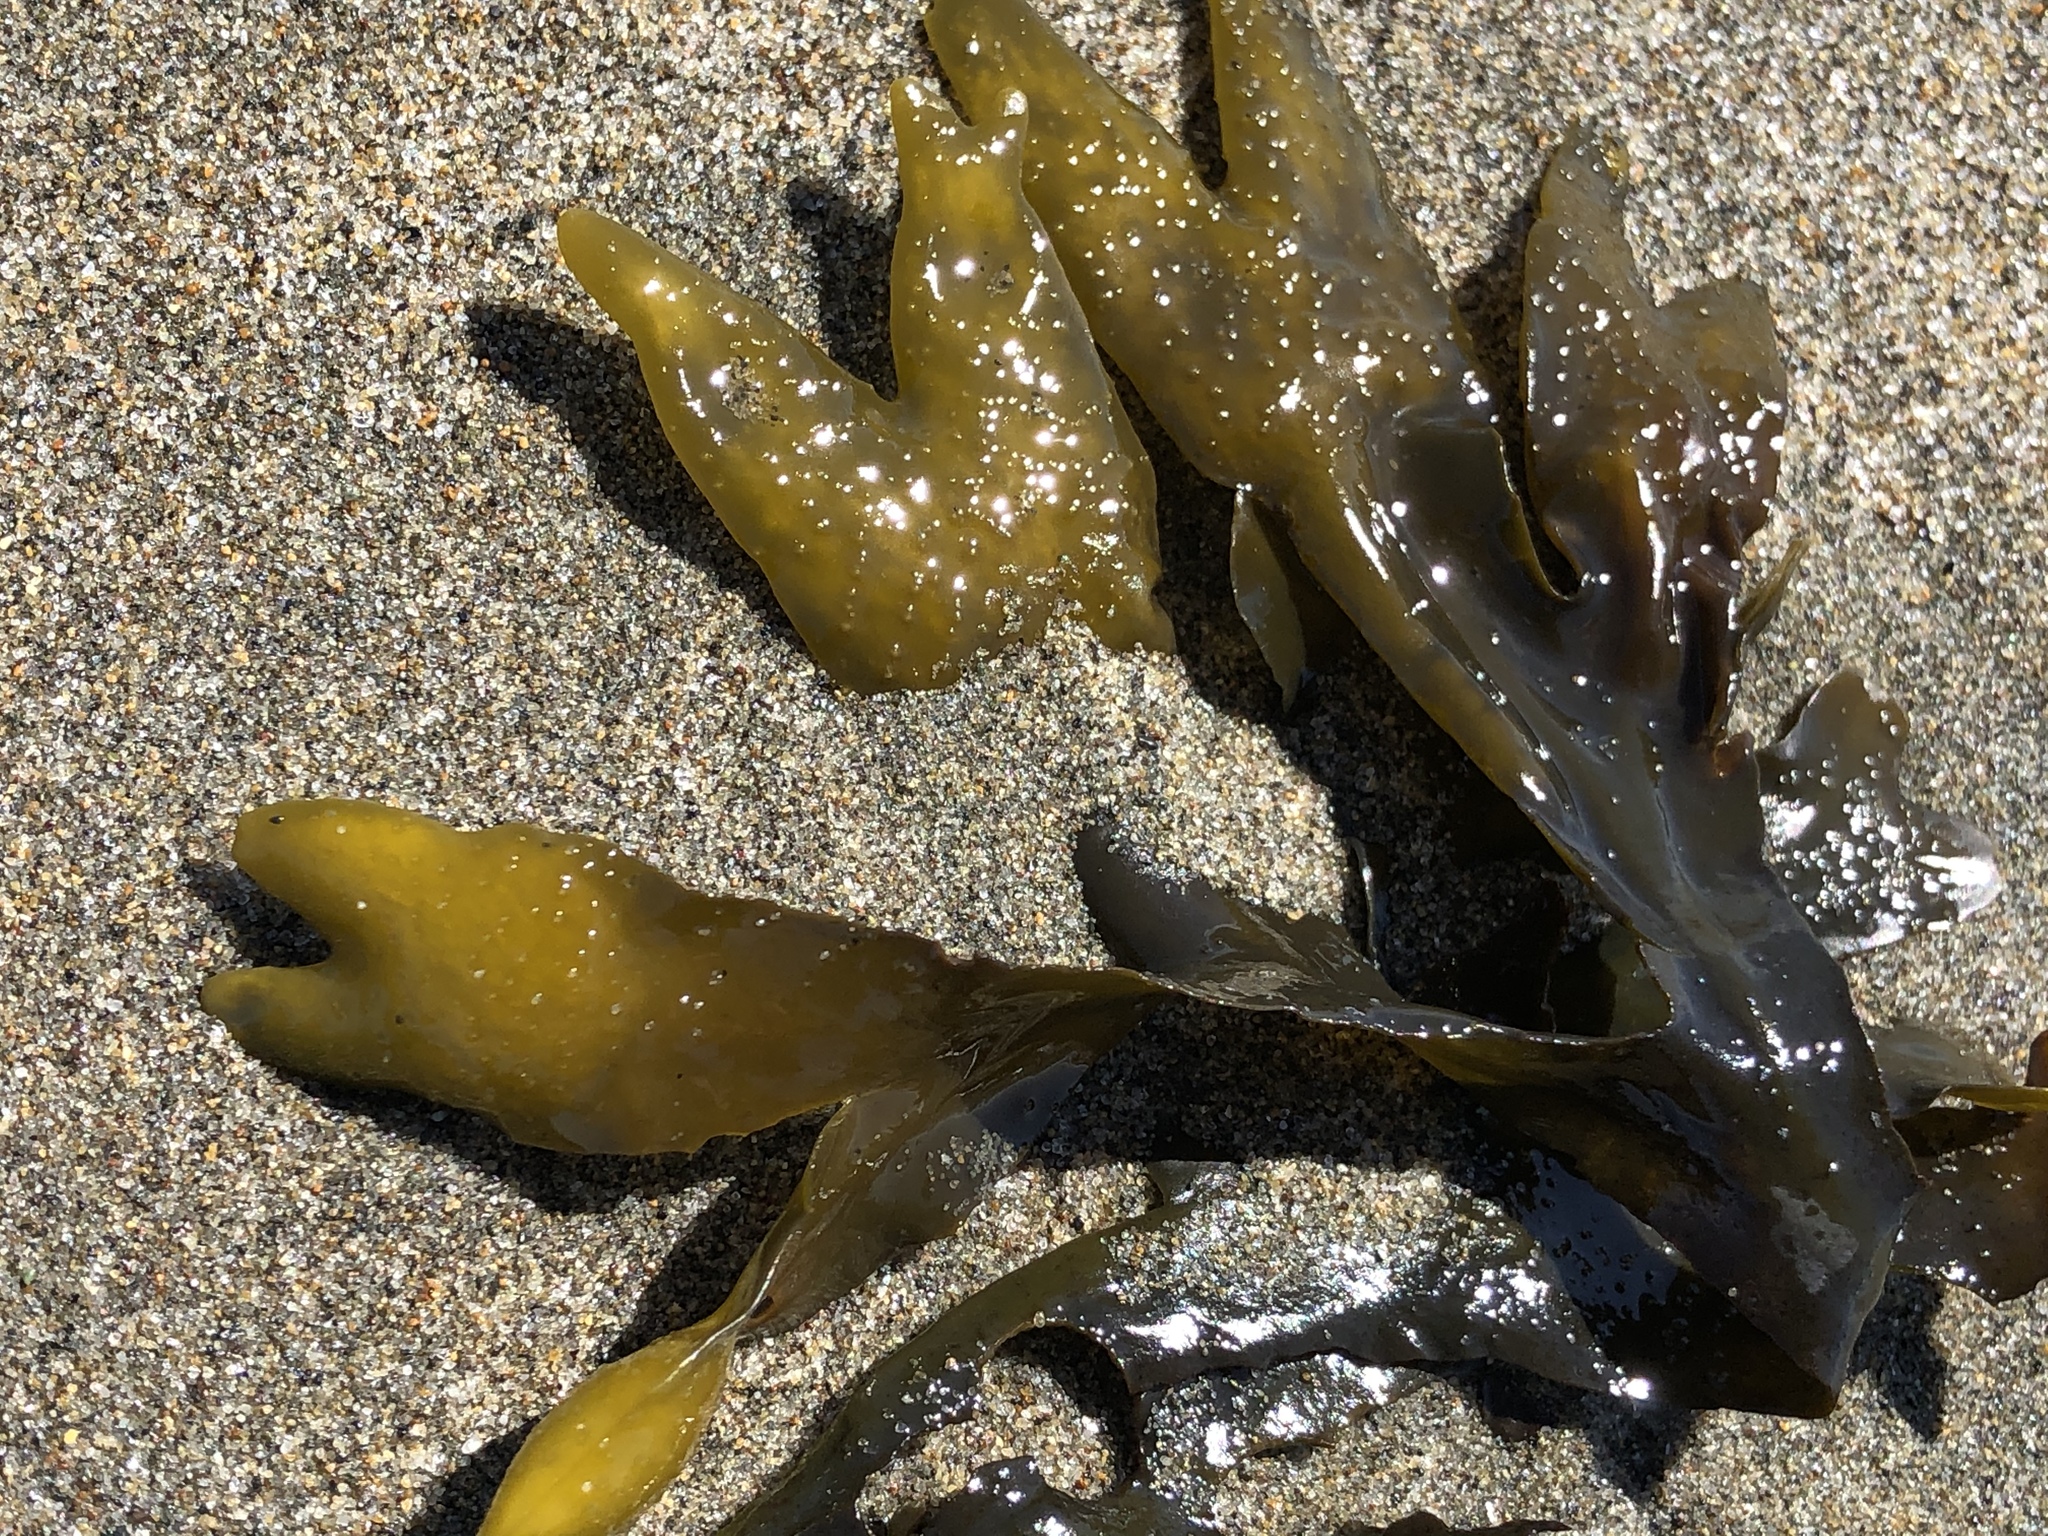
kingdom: Chromista
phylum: Ochrophyta
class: Phaeophyceae
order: Fucales
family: Fucaceae
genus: Fucus
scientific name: Fucus distichus
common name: Rockweed
